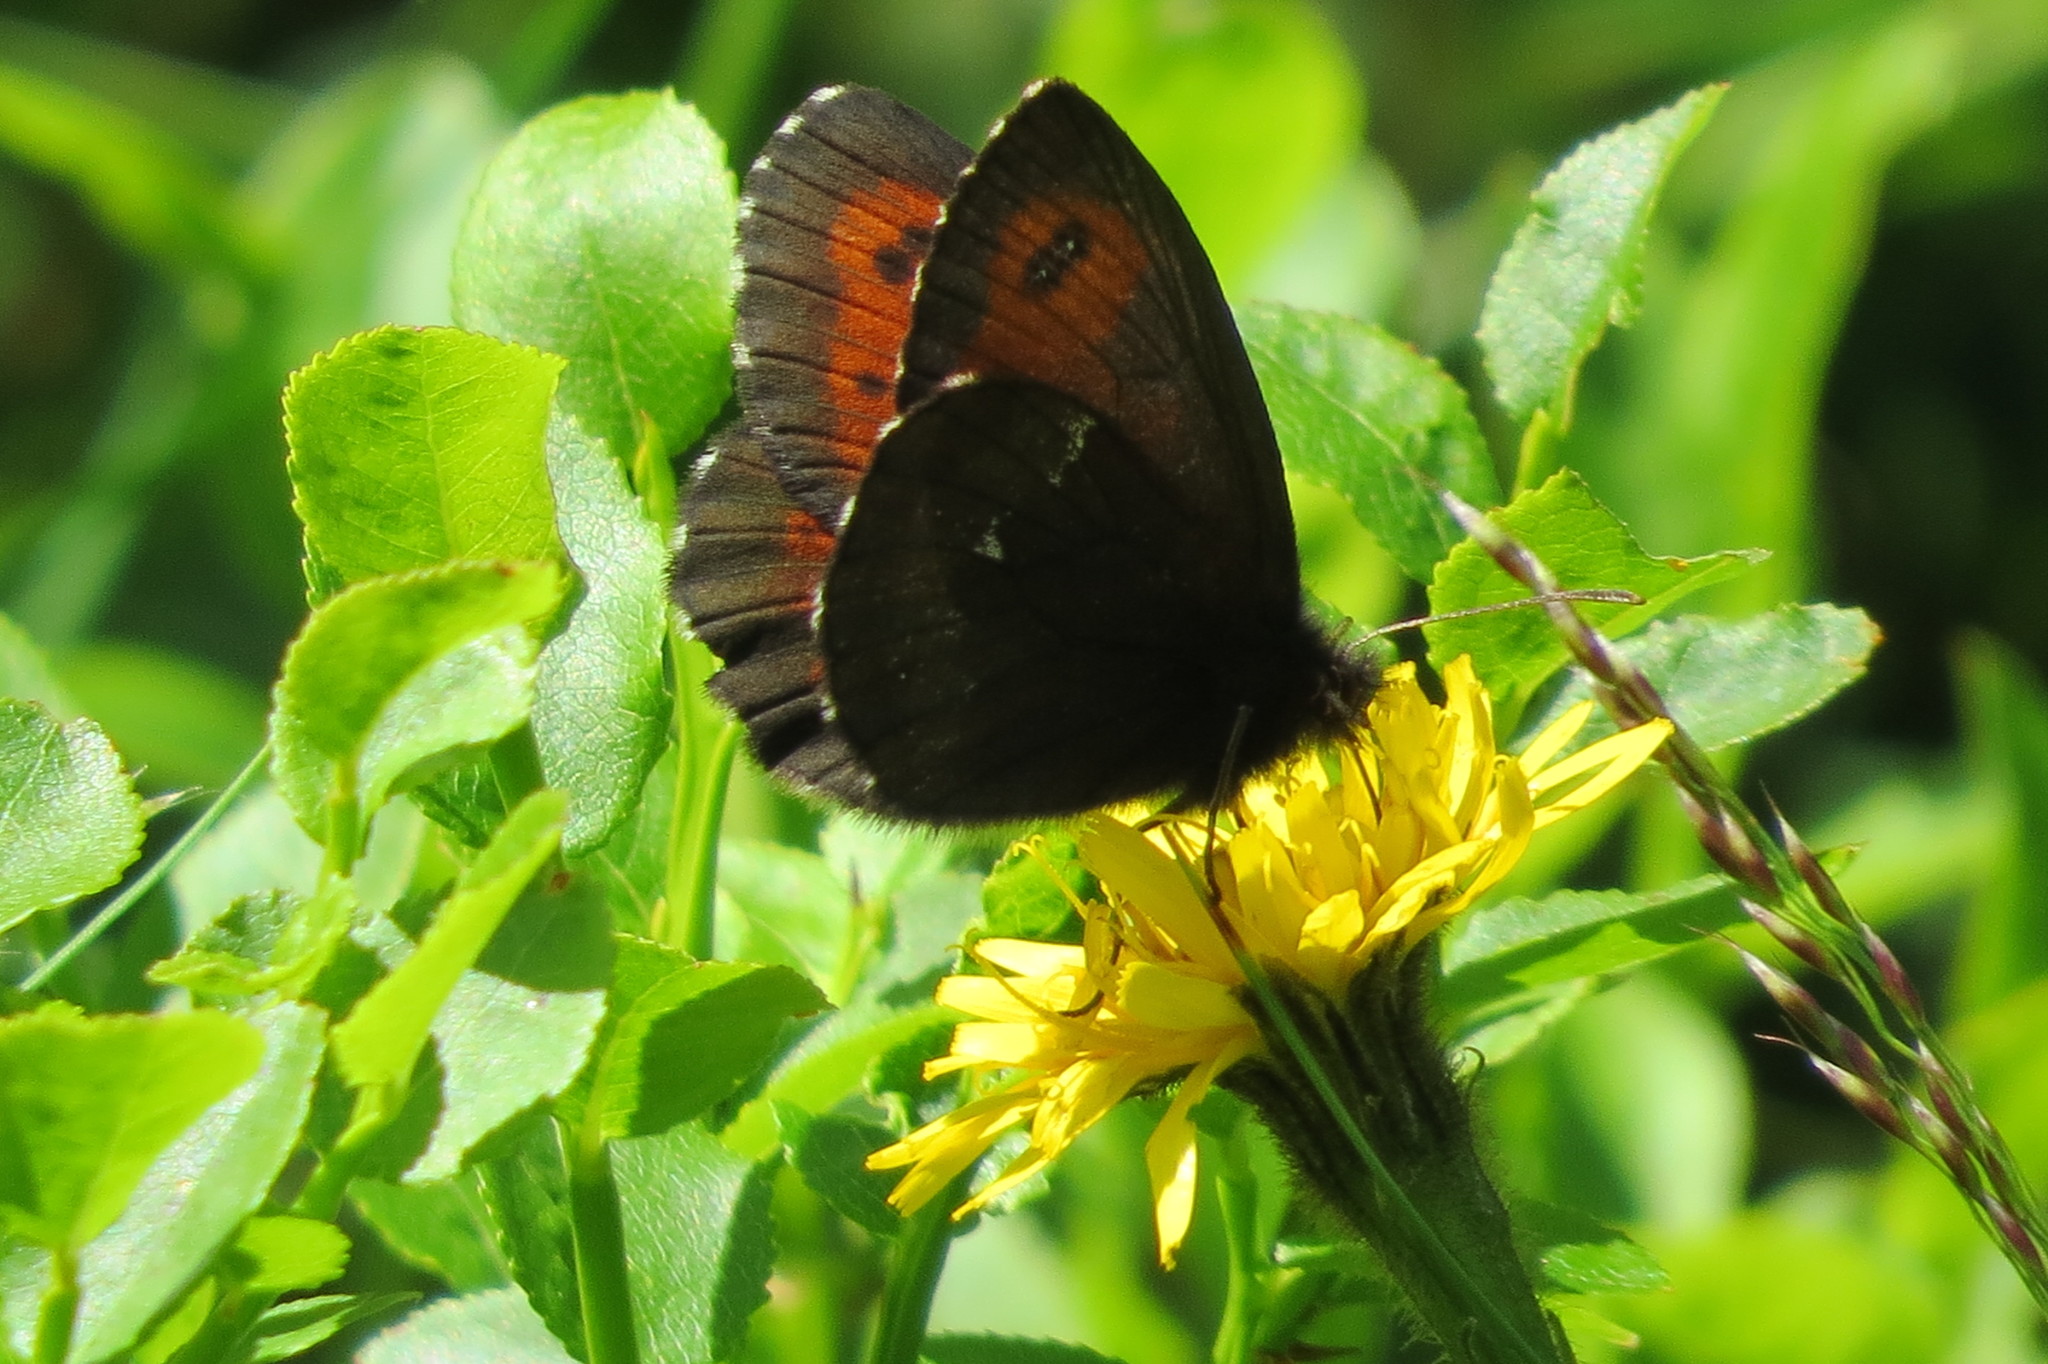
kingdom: Animalia
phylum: Arthropoda
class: Insecta
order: Lepidoptera
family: Nymphalidae
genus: Erebia
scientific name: Erebia euryale
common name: Large ringlet
